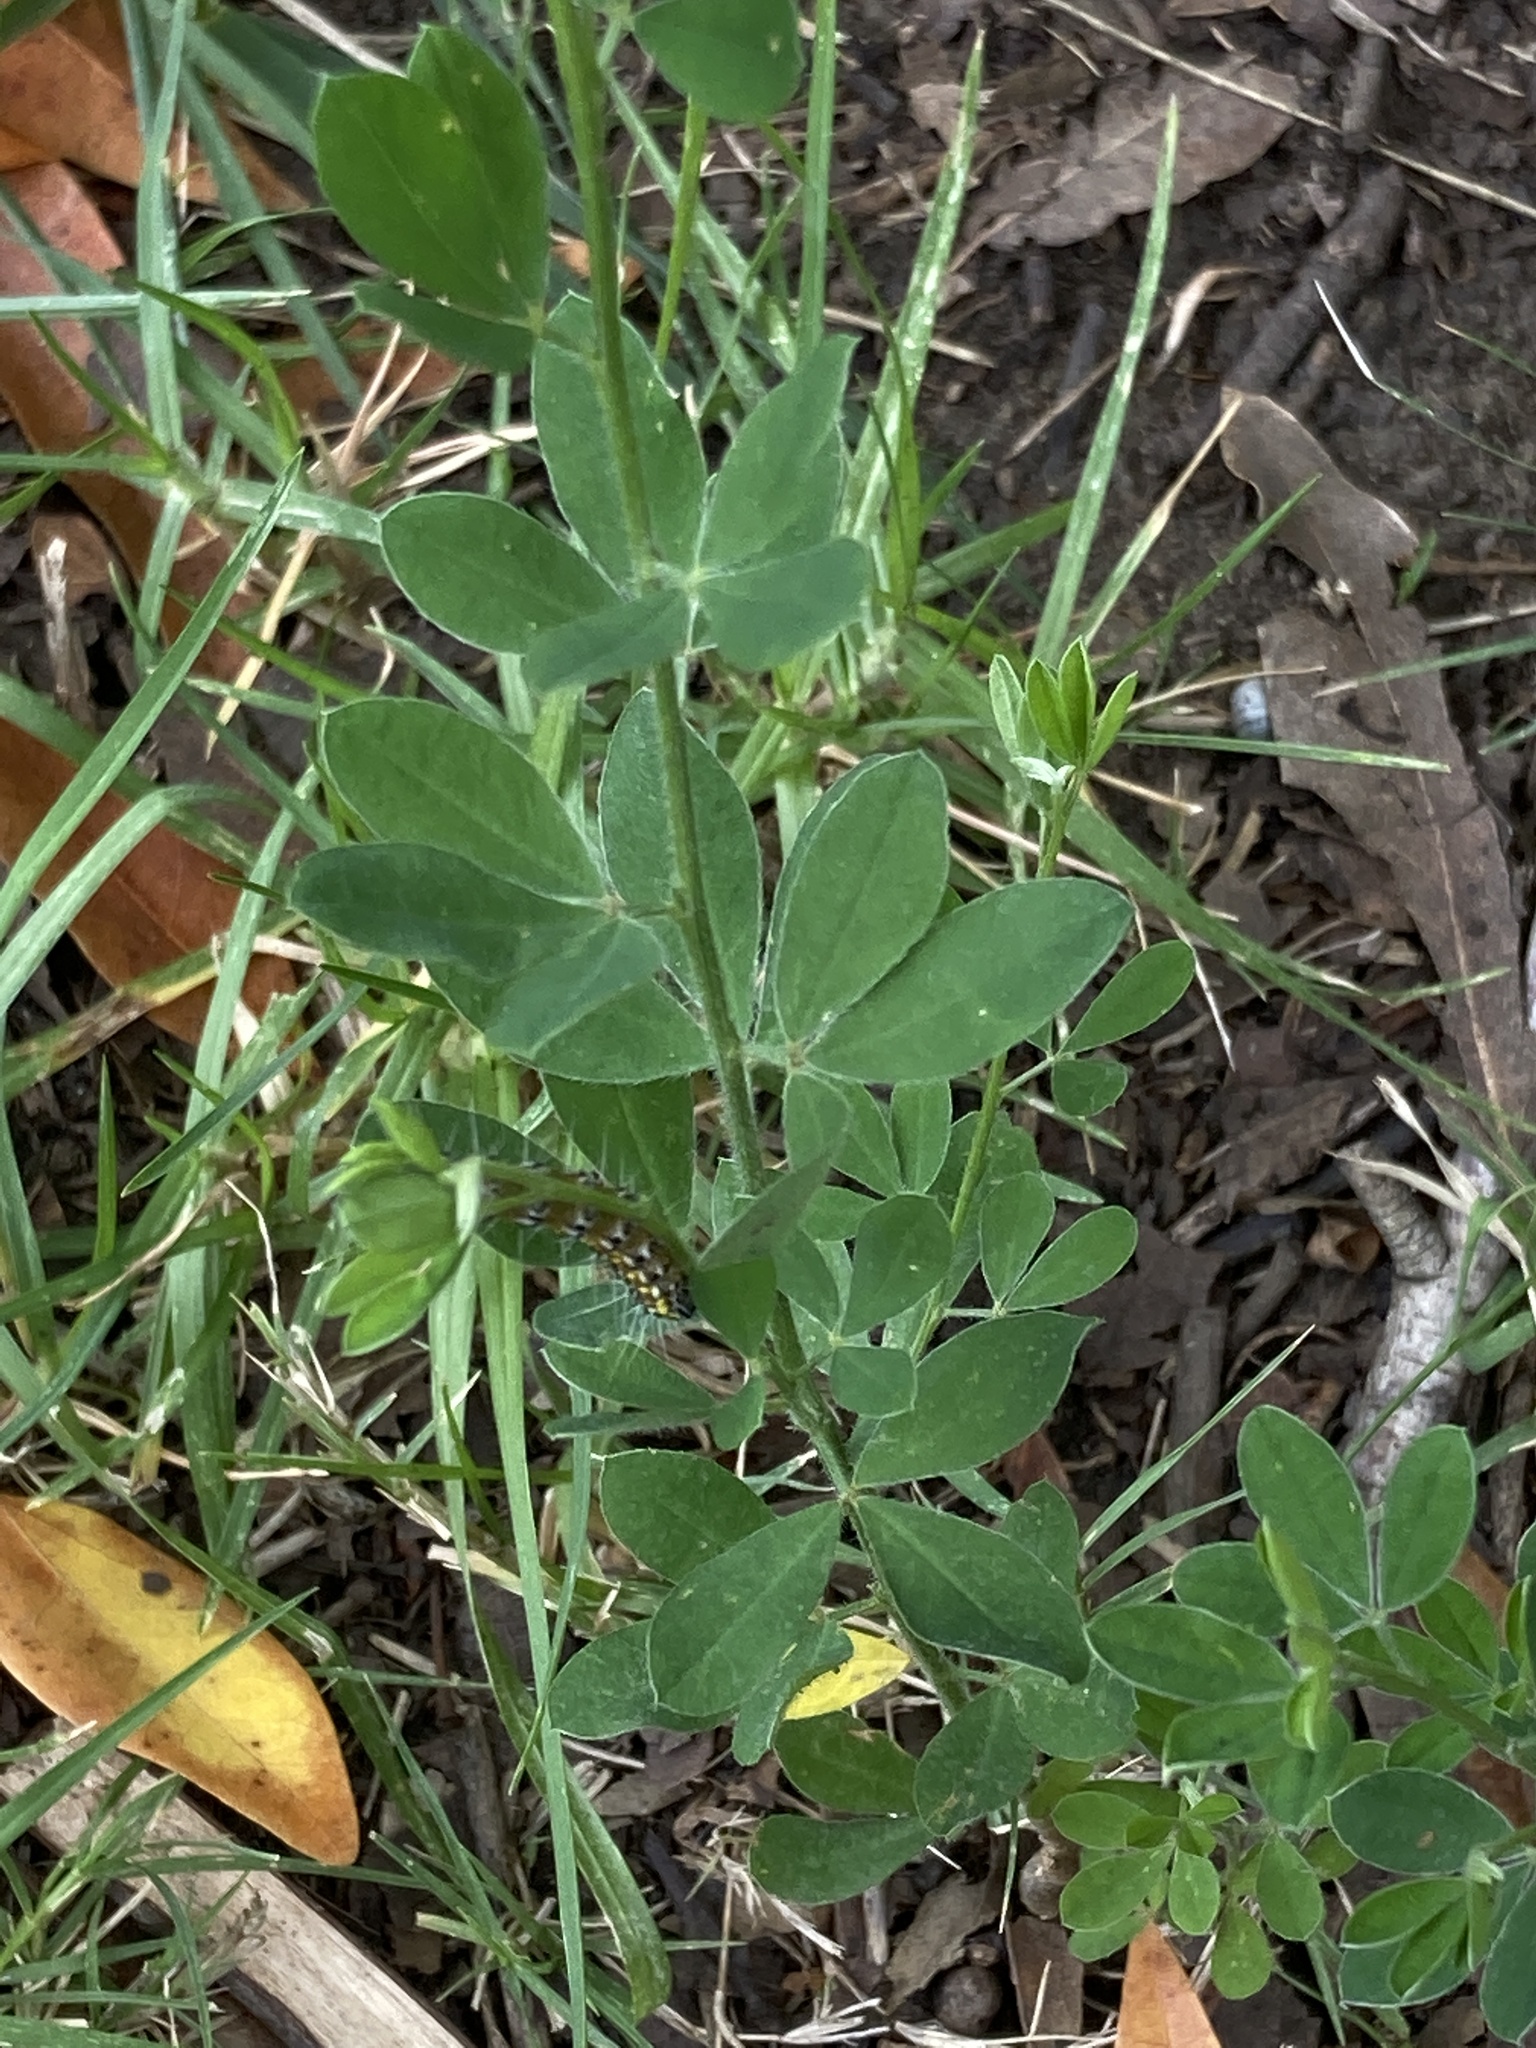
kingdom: Plantae
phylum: Tracheophyta
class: Magnoliopsida
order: Fabales
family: Fabaceae
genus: Genista
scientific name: Genista monspessulana
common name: Montpellier broom
